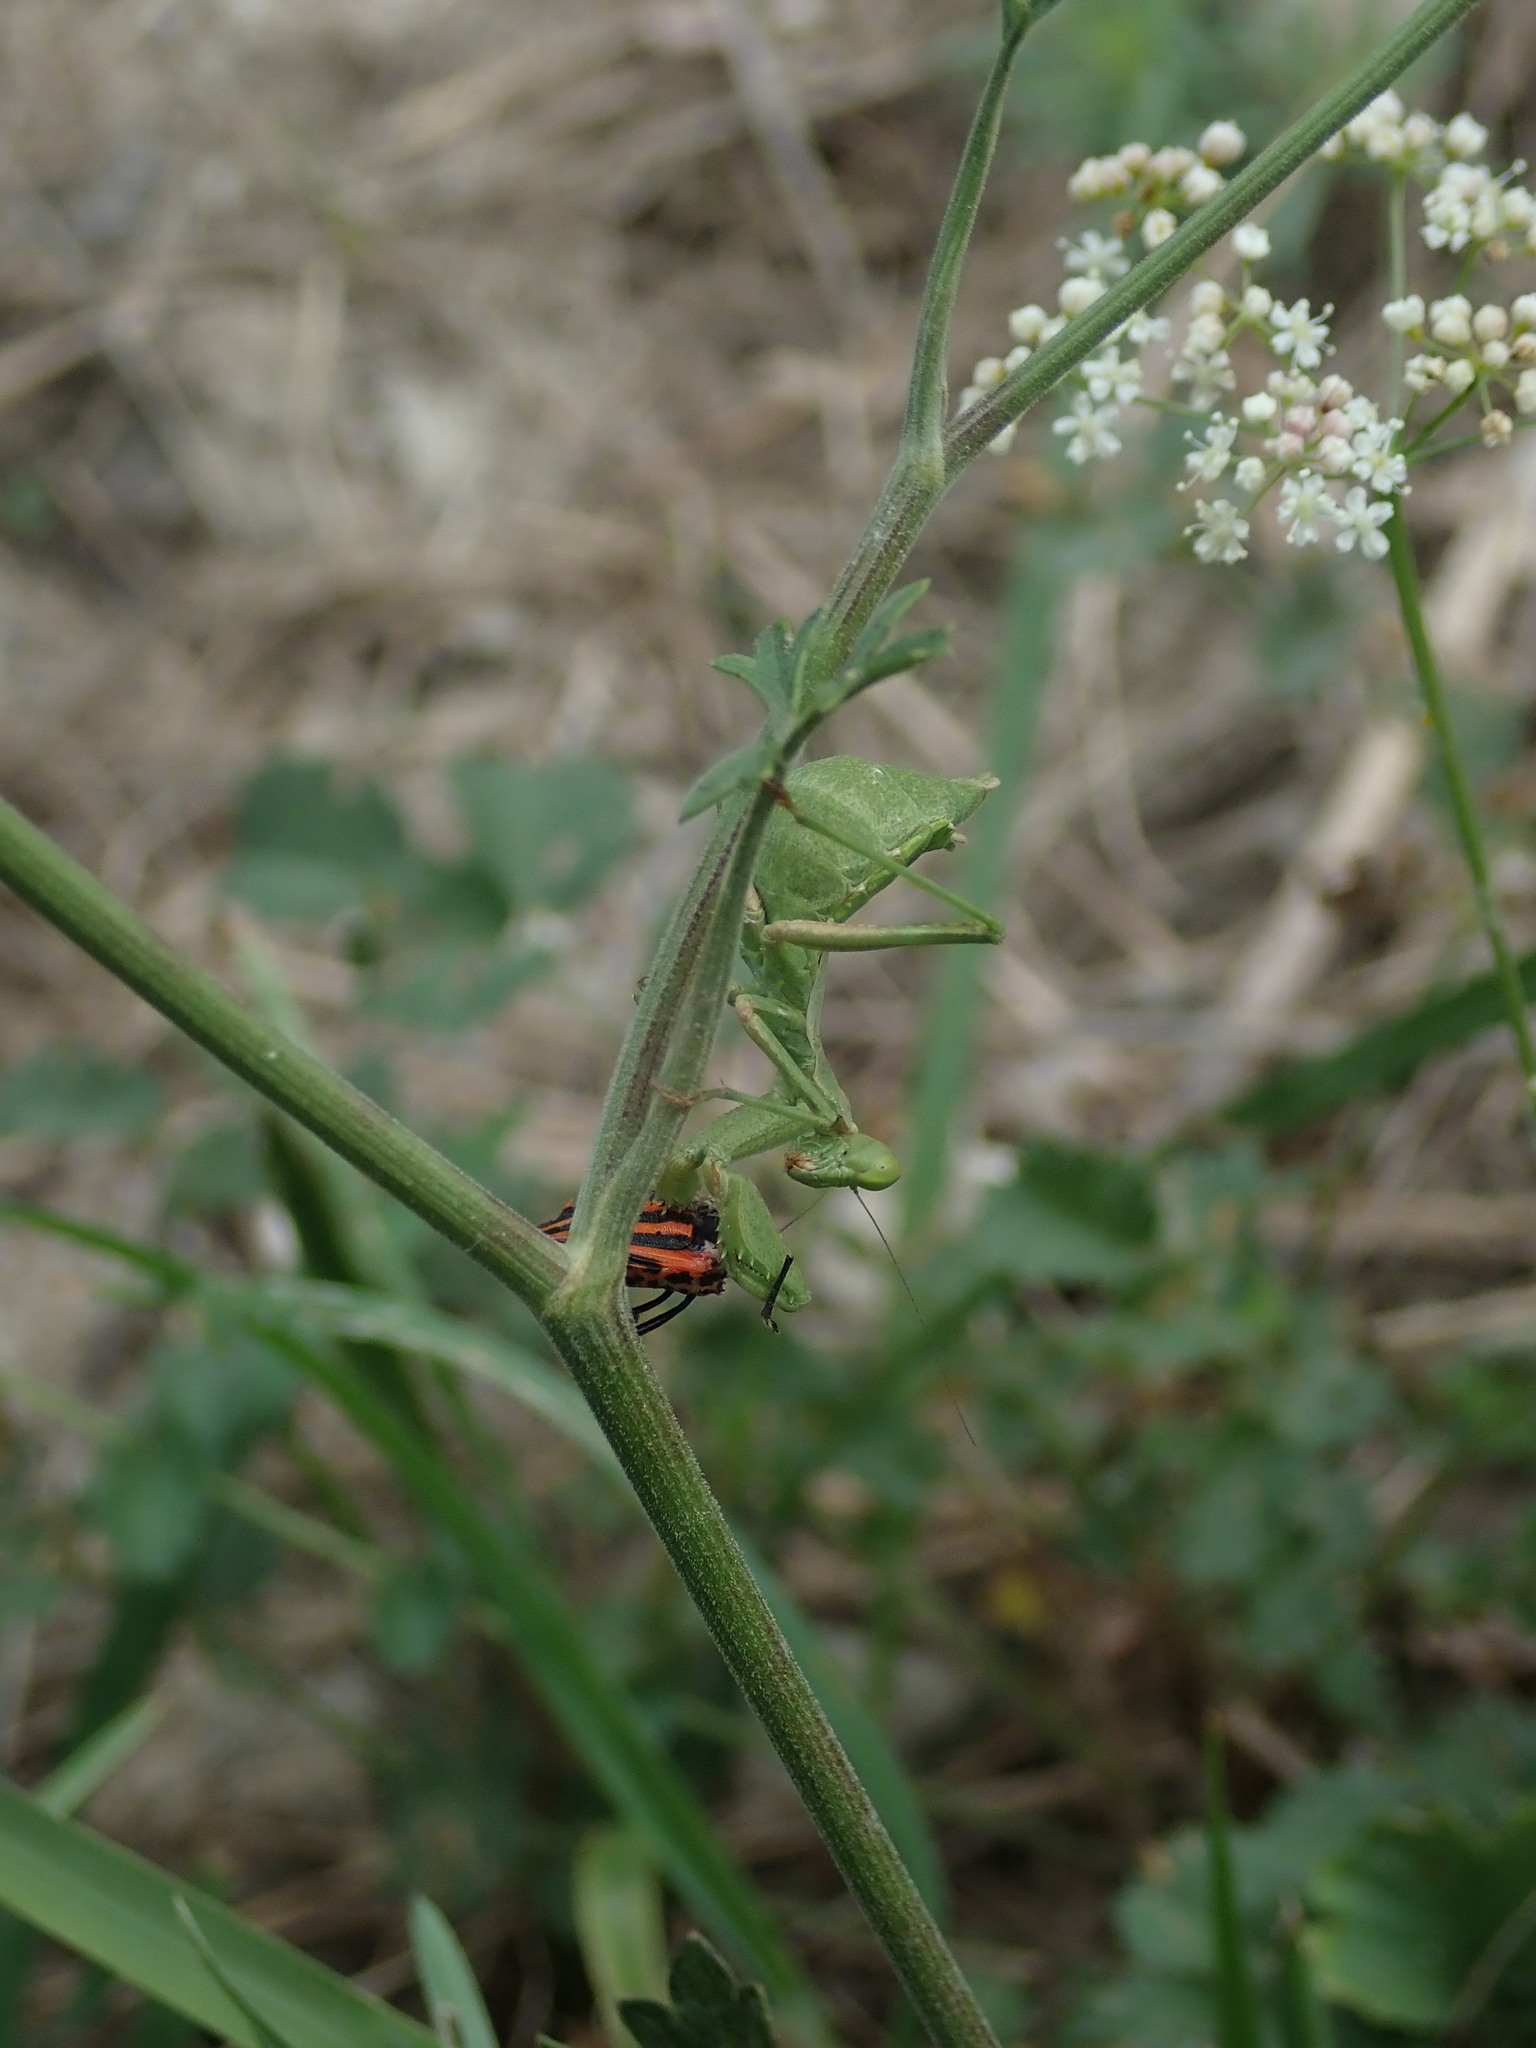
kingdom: Animalia
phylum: Arthropoda
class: Insecta
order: Mantodea
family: Amelidae
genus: Ameles
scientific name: Ameles spallanzania
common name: European dwarf mantis
